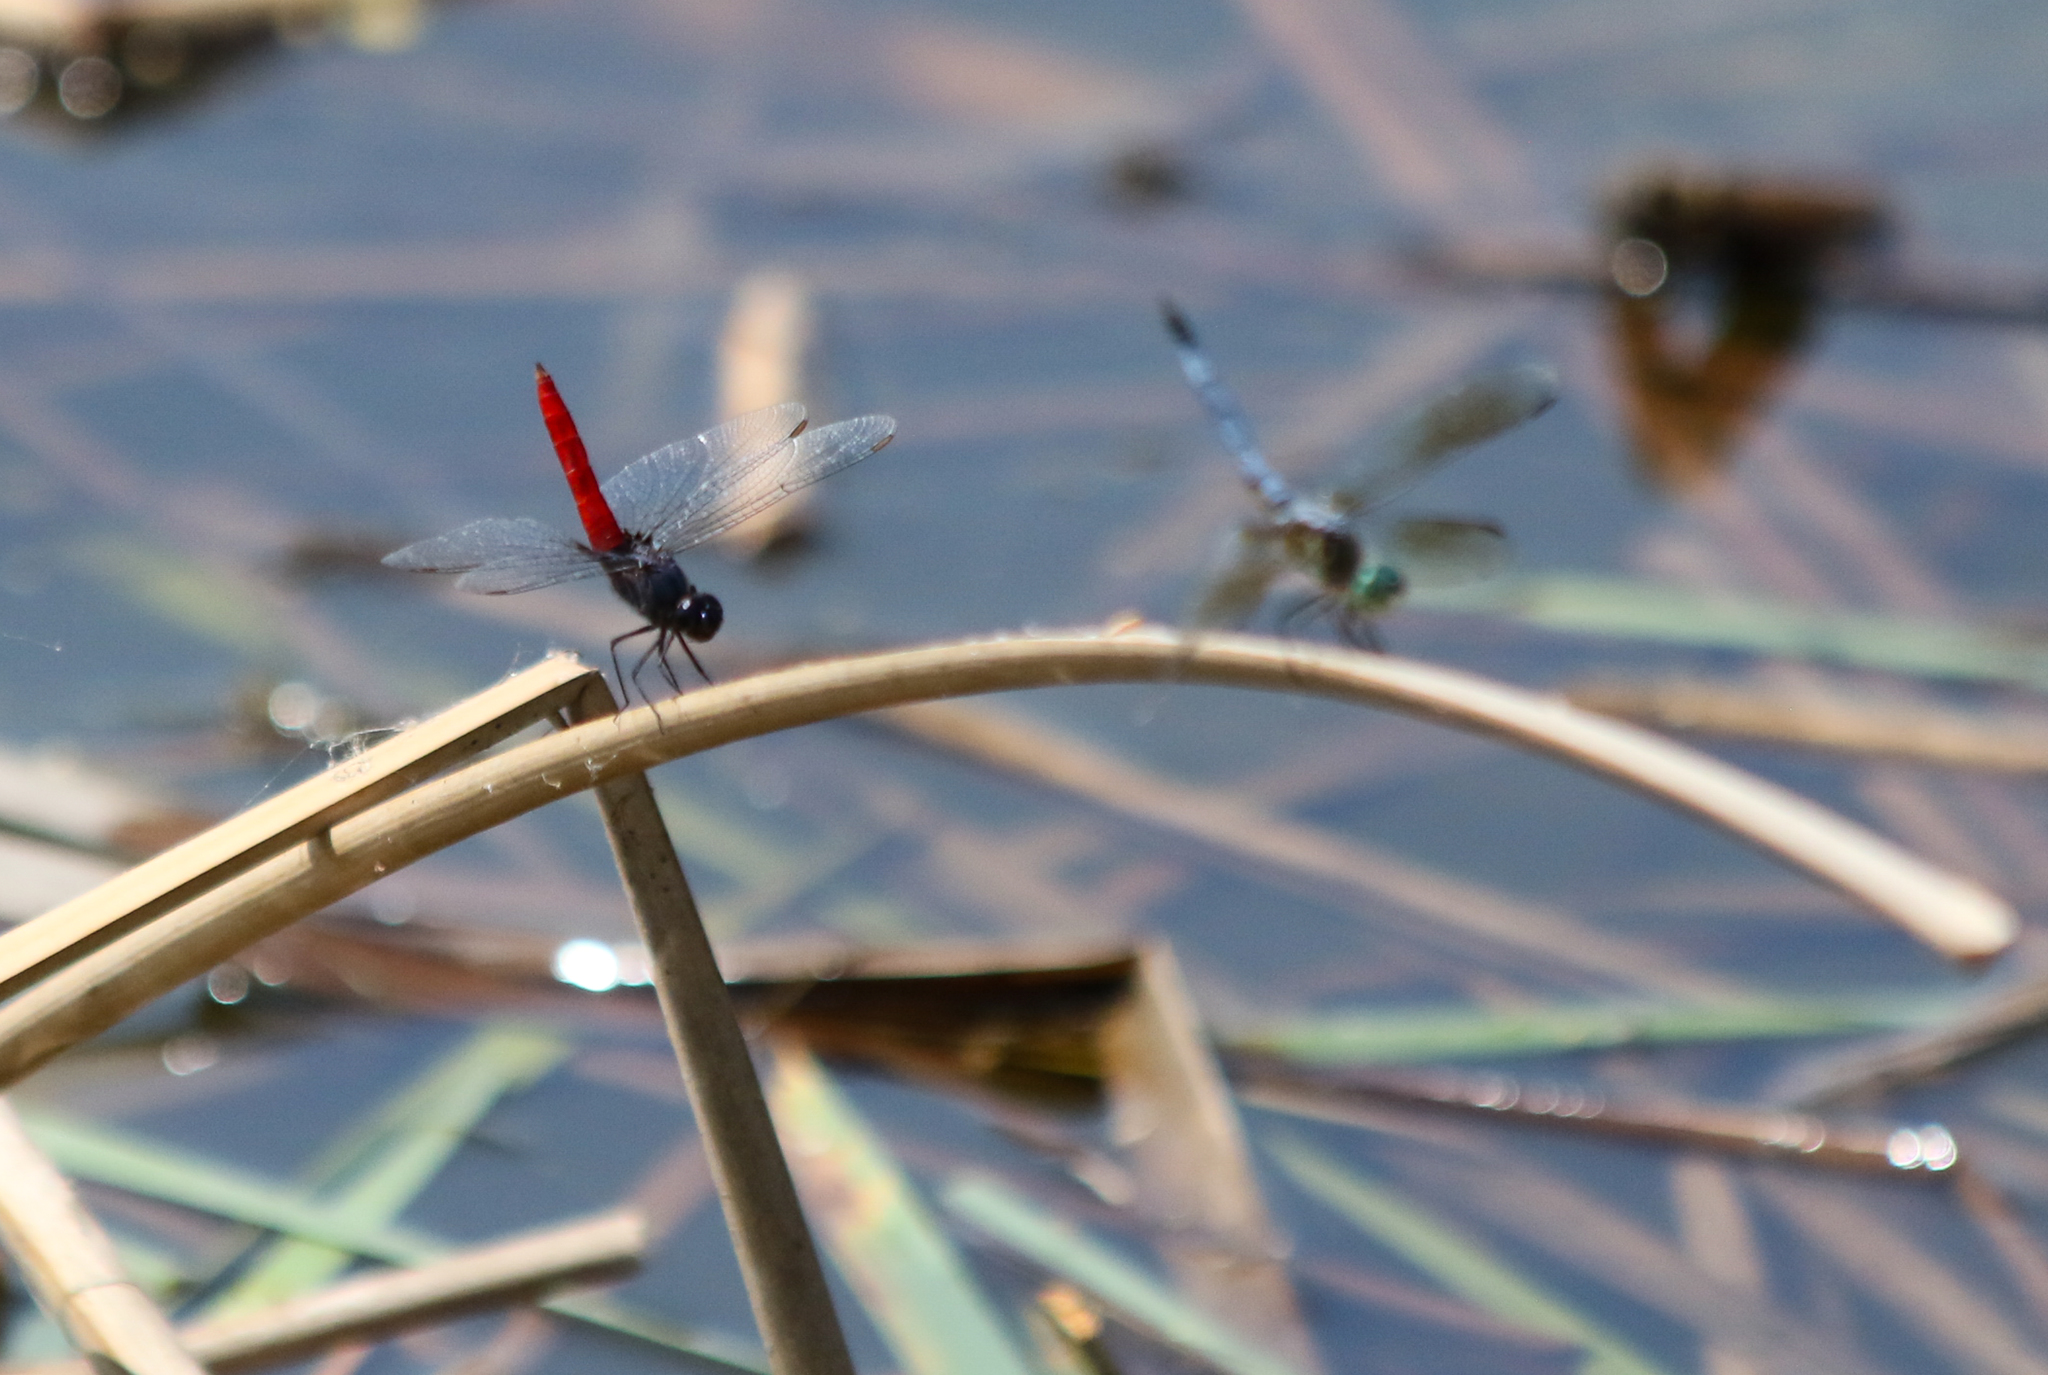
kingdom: Animalia
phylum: Arthropoda
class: Insecta
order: Odonata
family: Libellulidae
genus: Planiplax
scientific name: Planiplax sanguiniventris
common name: Mexican scarlet-tail
